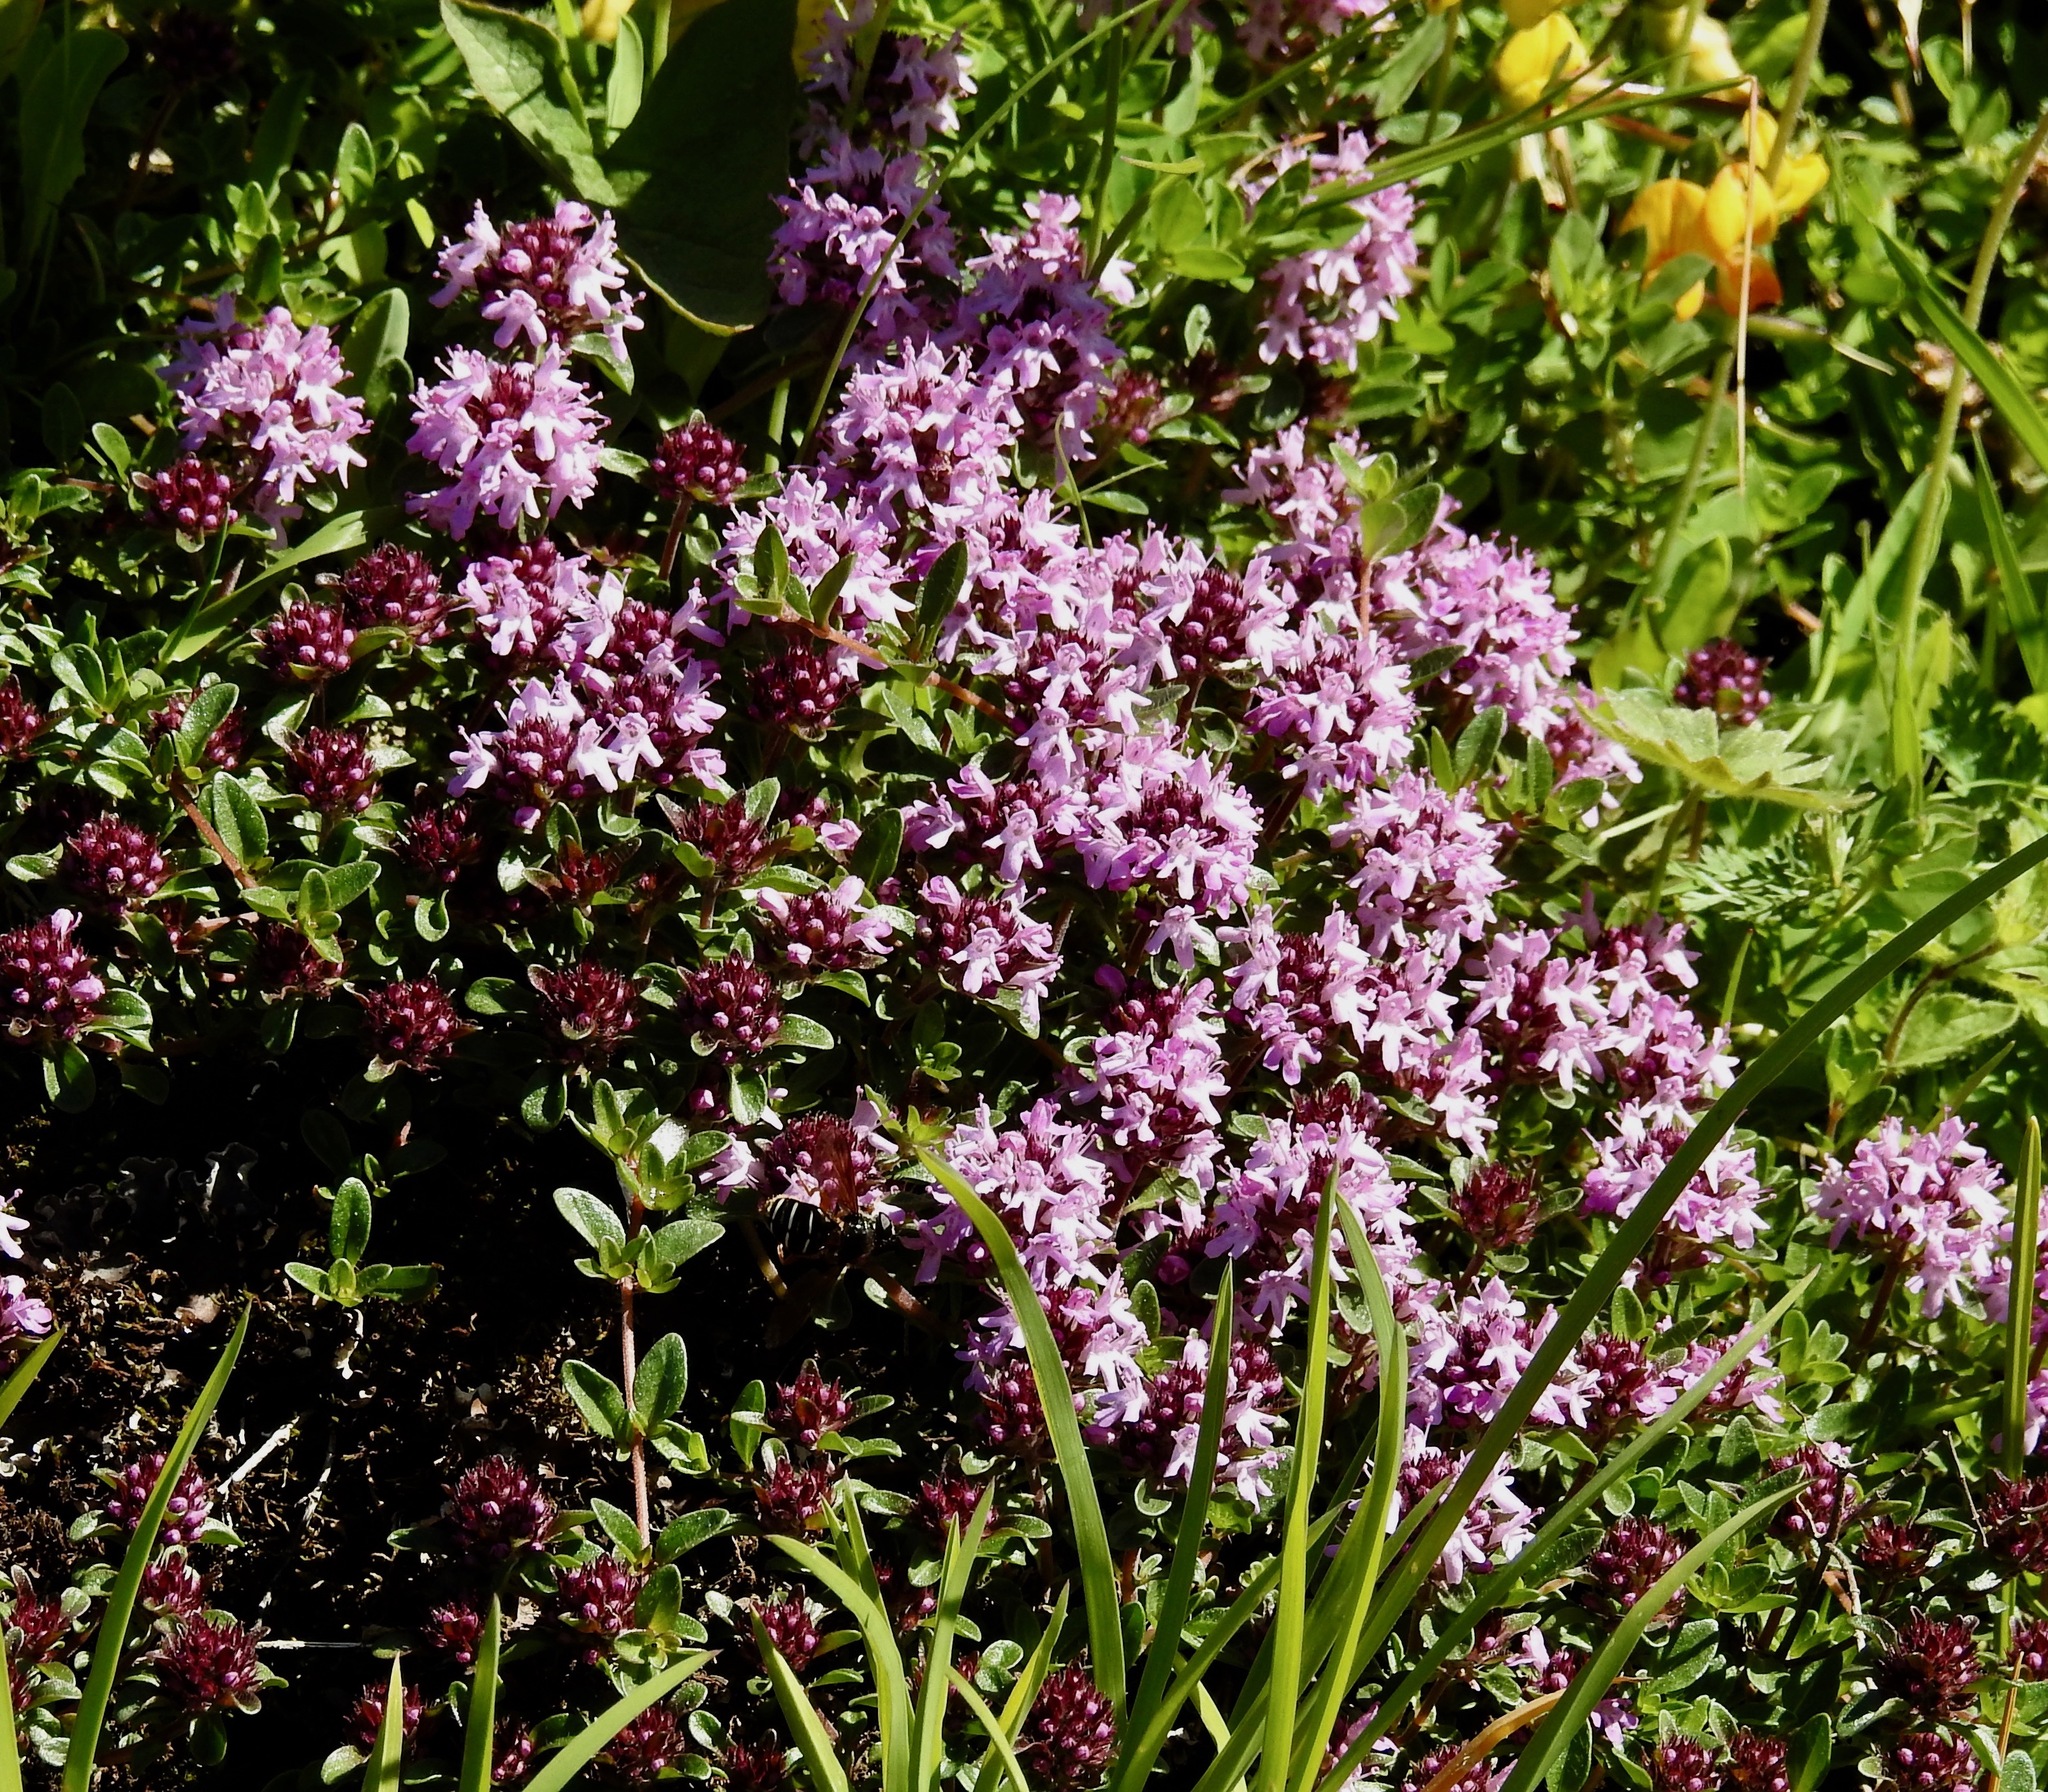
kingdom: Plantae
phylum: Tracheophyta
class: Magnoliopsida
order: Lamiales
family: Lamiaceae
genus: Thymus
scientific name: Thymus praecox
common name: Wild thyme
